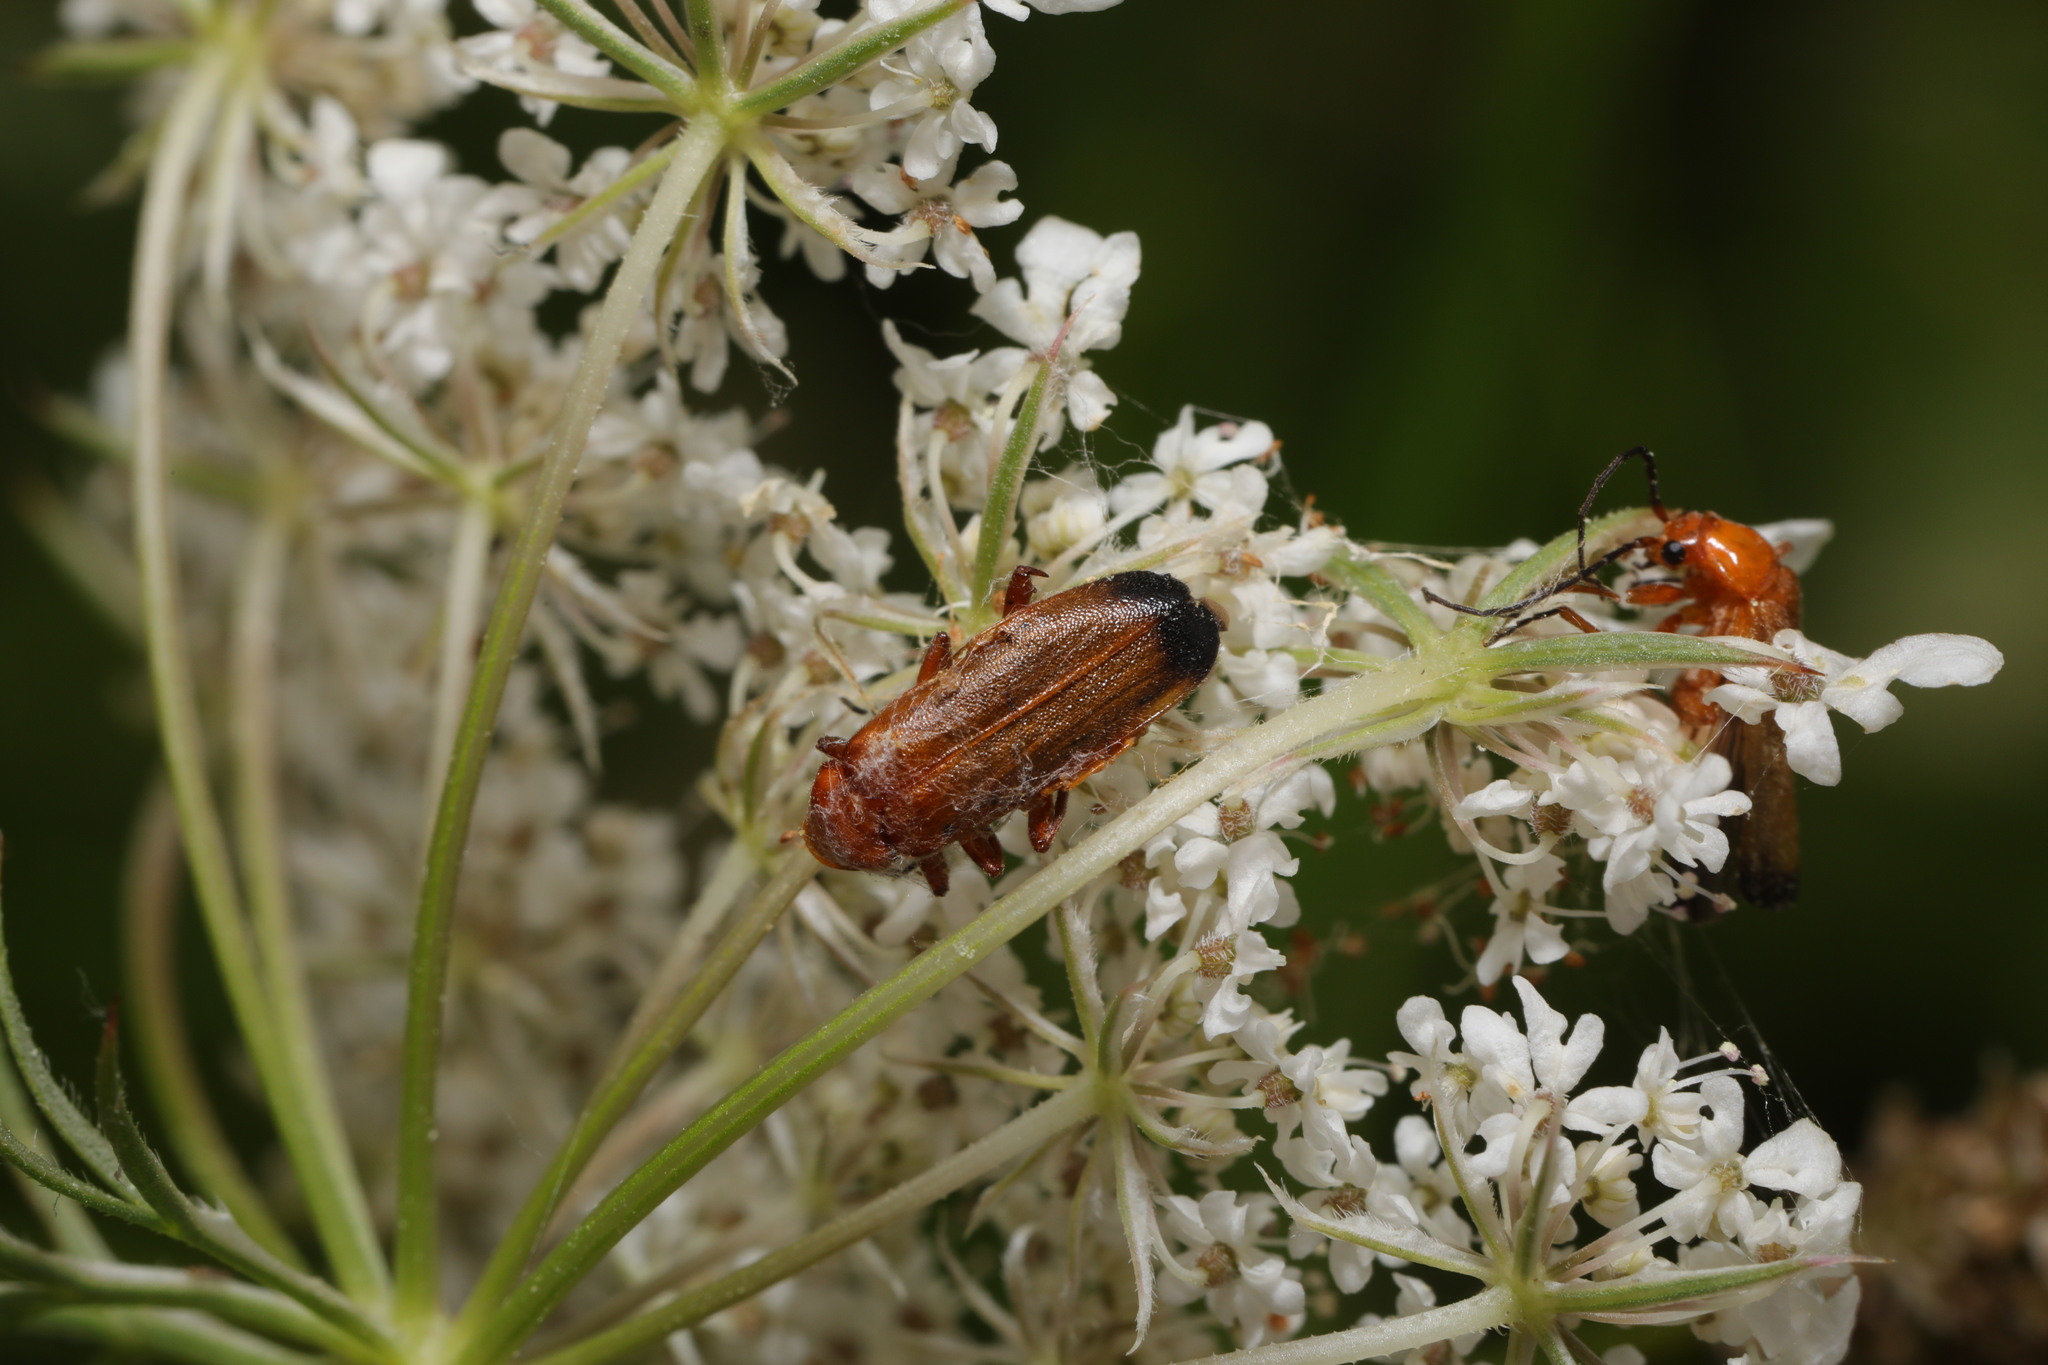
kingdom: Animalia
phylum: Arthropoda
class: Insecta
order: Coleoptera
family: Cantharidae
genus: Rhagonycha
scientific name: Rhagonycha fulva
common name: Common red soldier beetle
